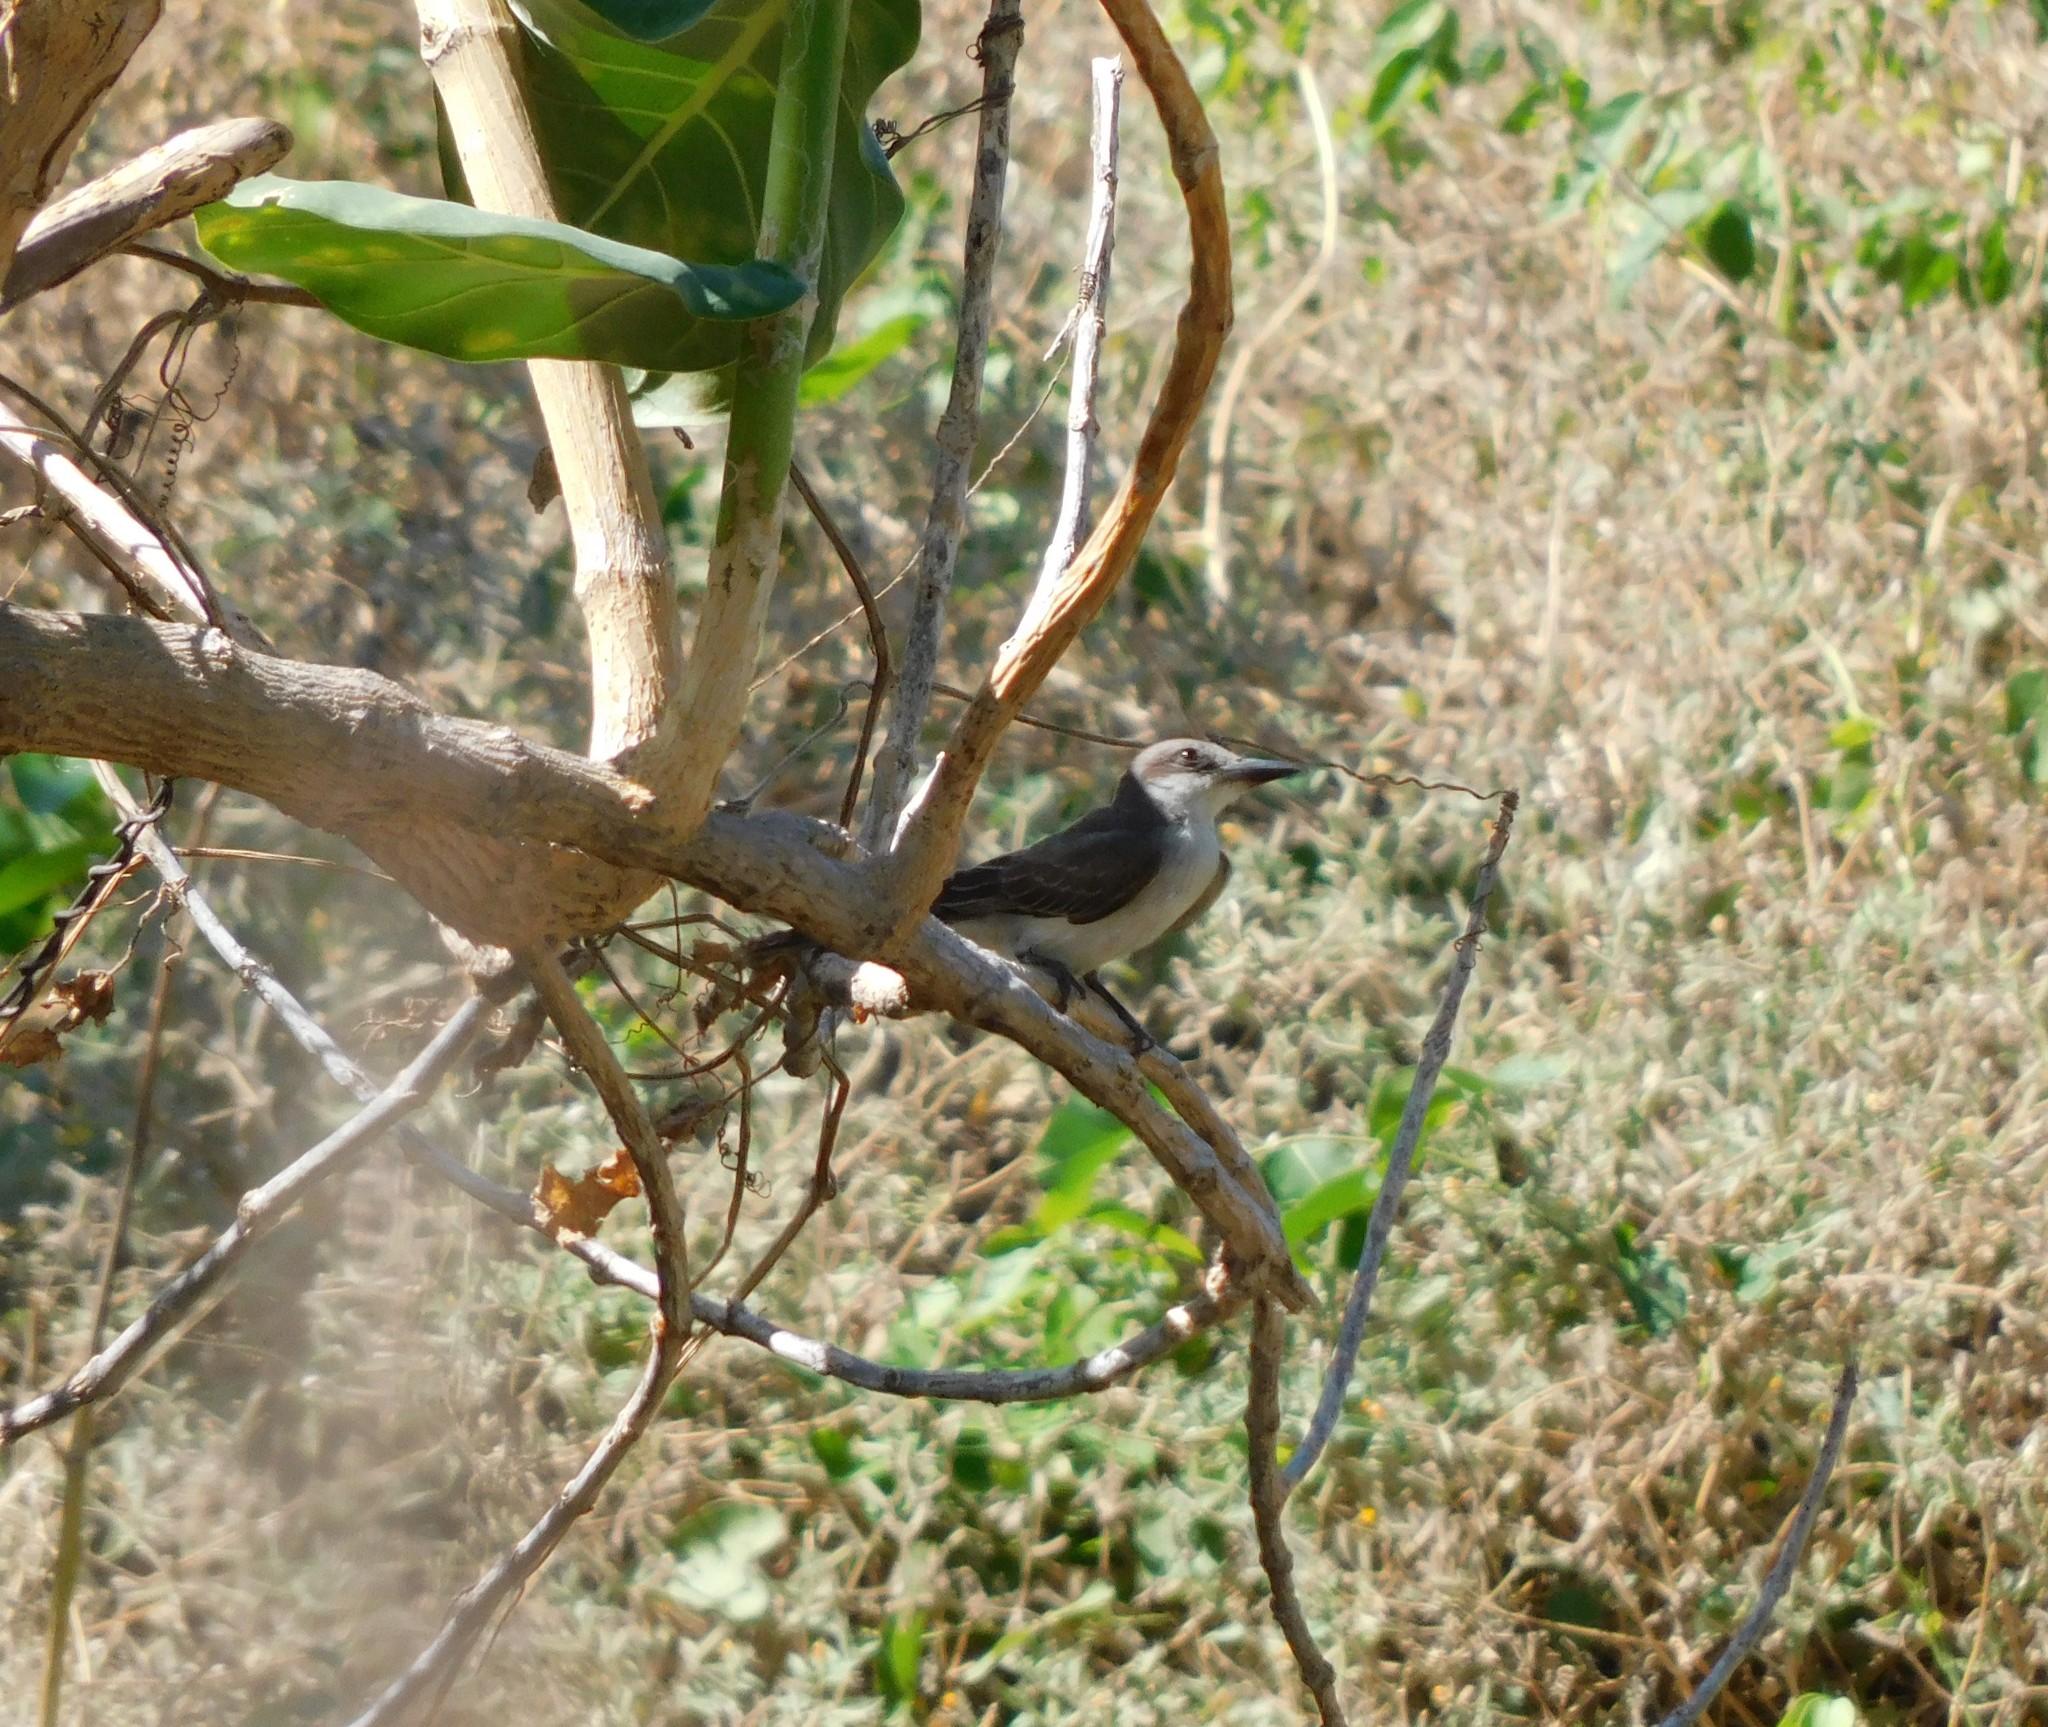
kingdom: Animalia
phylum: Chordata
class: Aves
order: Passeriformes
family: Tyrannidae
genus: Tyrannus
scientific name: Tyrannus dominicensis
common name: Gray kingbird
